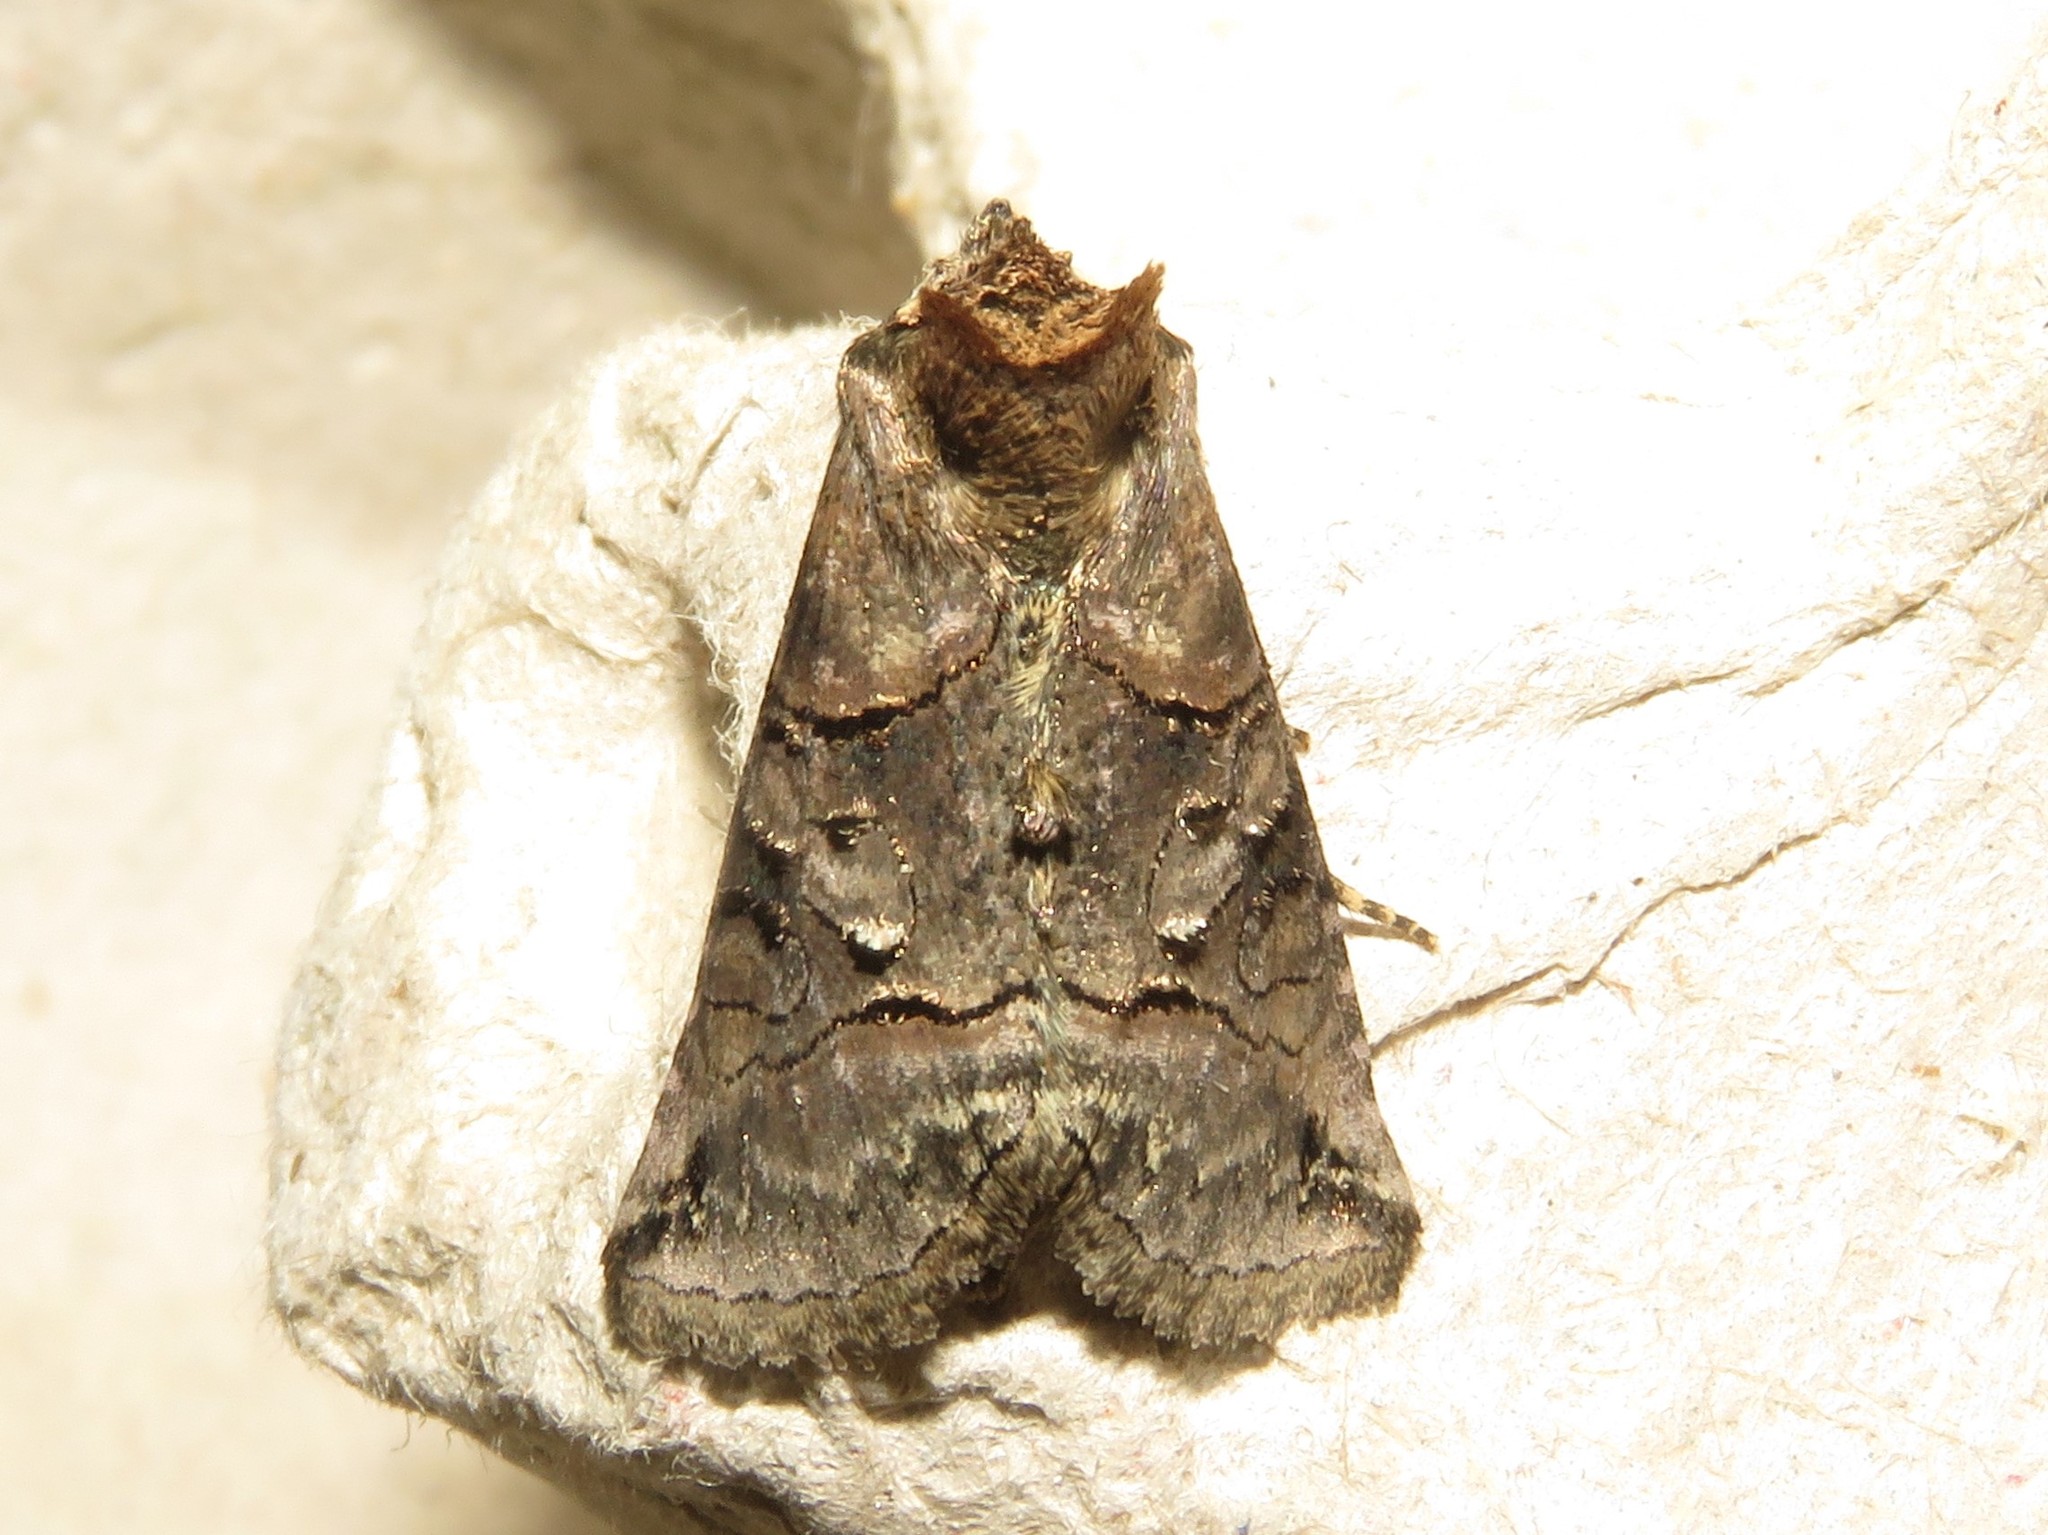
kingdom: Animalia
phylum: Arthropoda
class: Insecta
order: Lepidoptera
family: Noctuidae
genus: Abrostola
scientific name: Abrostola urentis
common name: Spectacled nettle moth
